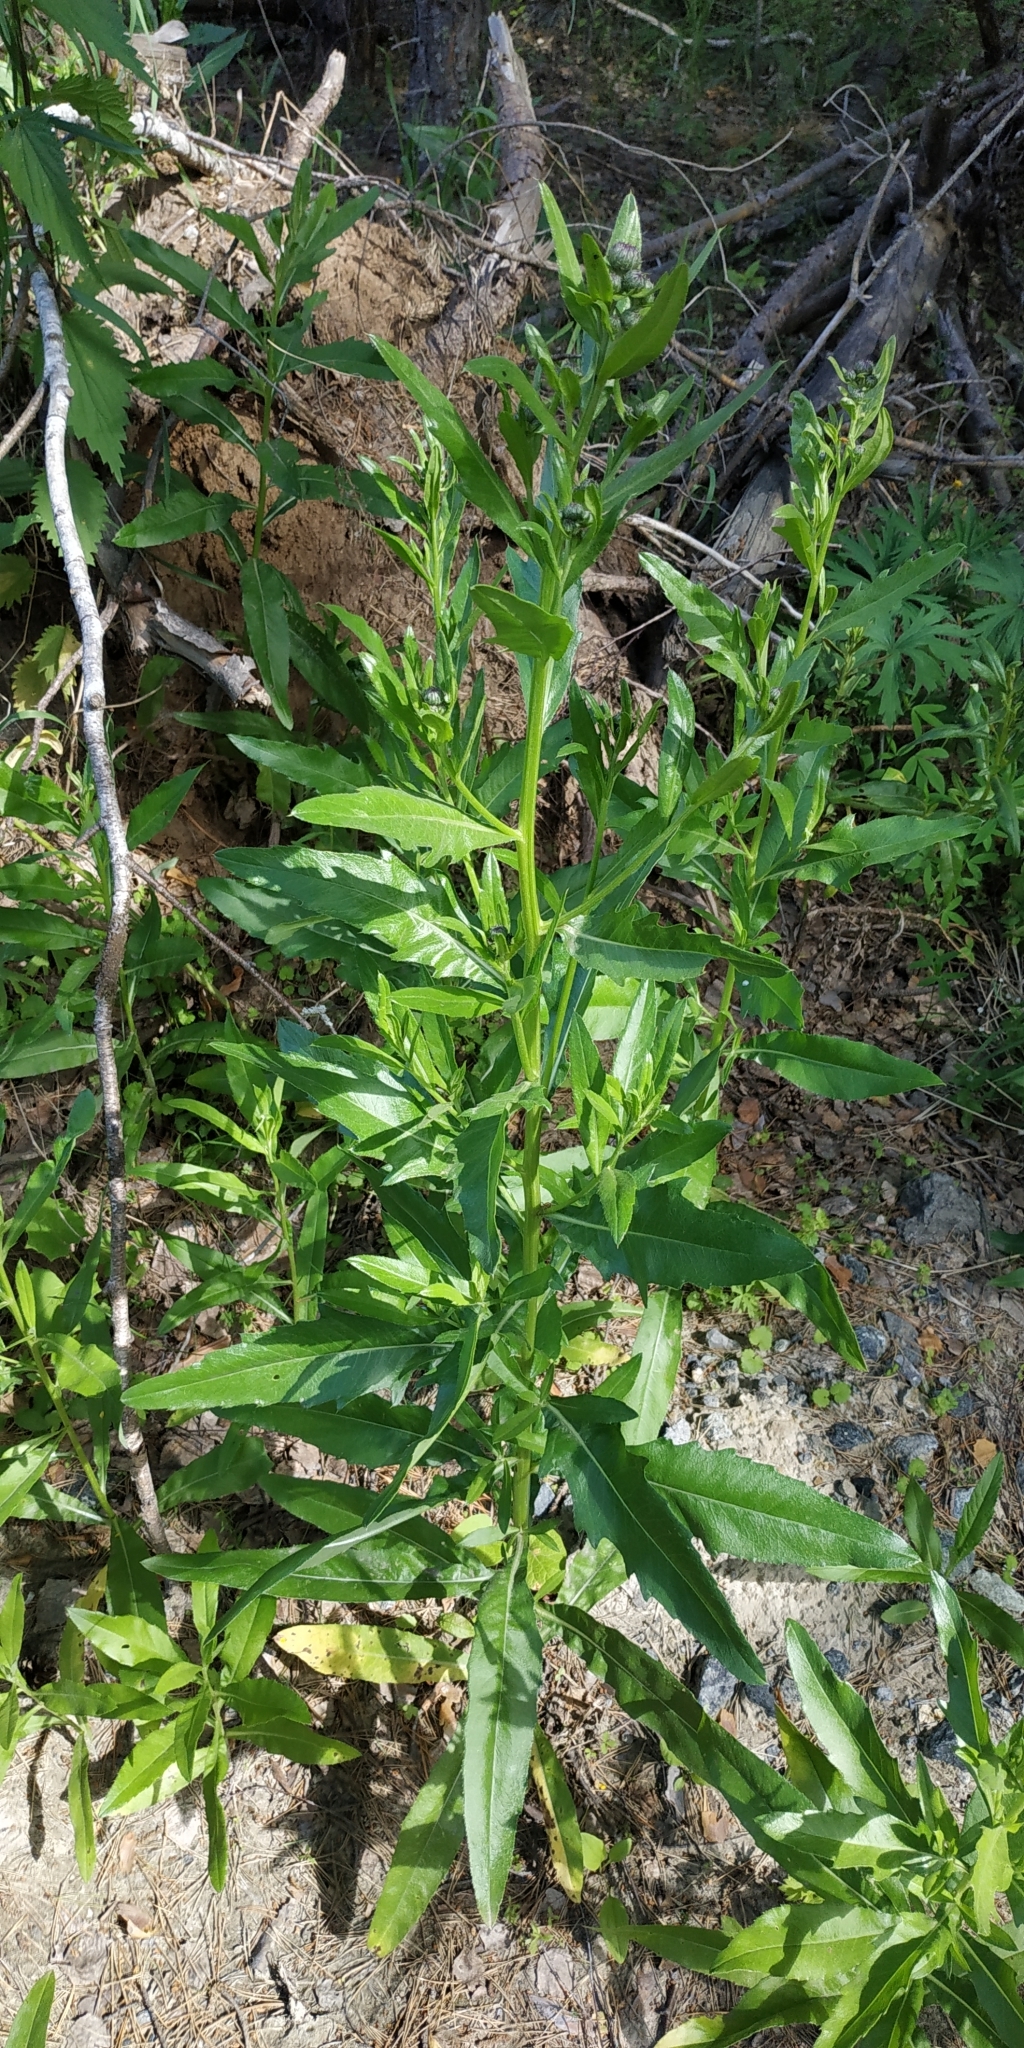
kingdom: Plantae
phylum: Tracheophyta
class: Magnoliopsida
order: Asterales
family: Asteraceae
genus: Cirsium
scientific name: Cirsium arvense
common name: Creeping thistle
